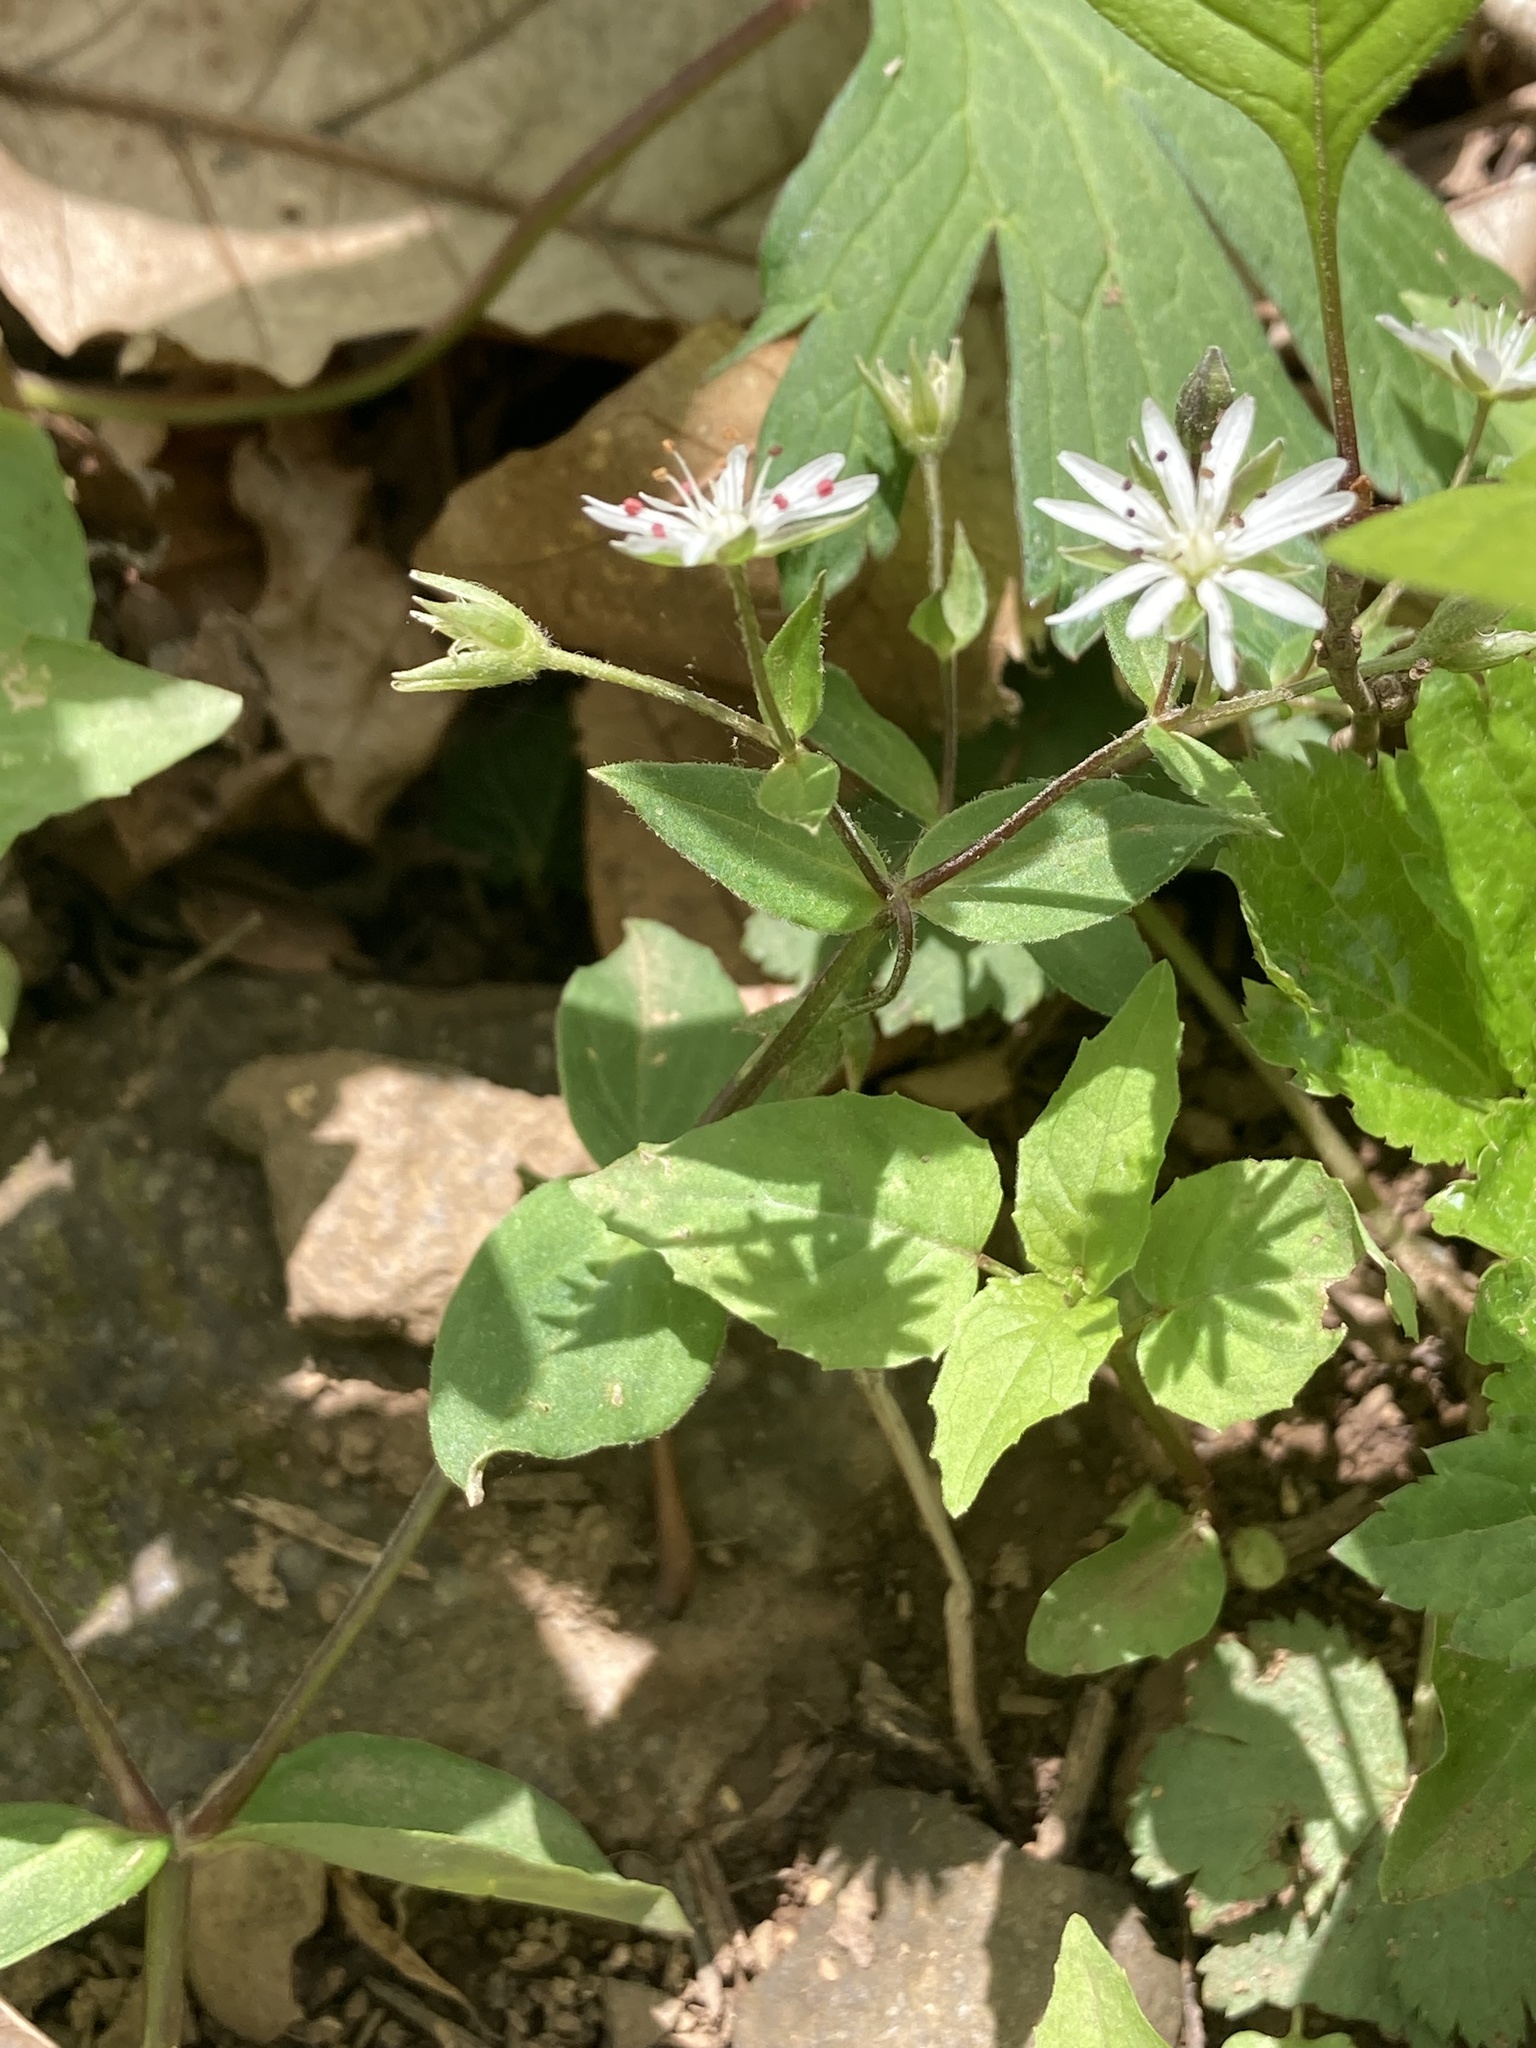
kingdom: Plantae
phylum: Tracheophyta
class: Magnoliopsida
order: Caryophyllales
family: Caryophyllaceae
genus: Stellaria
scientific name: Stellaria pubera
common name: Star chickweed
